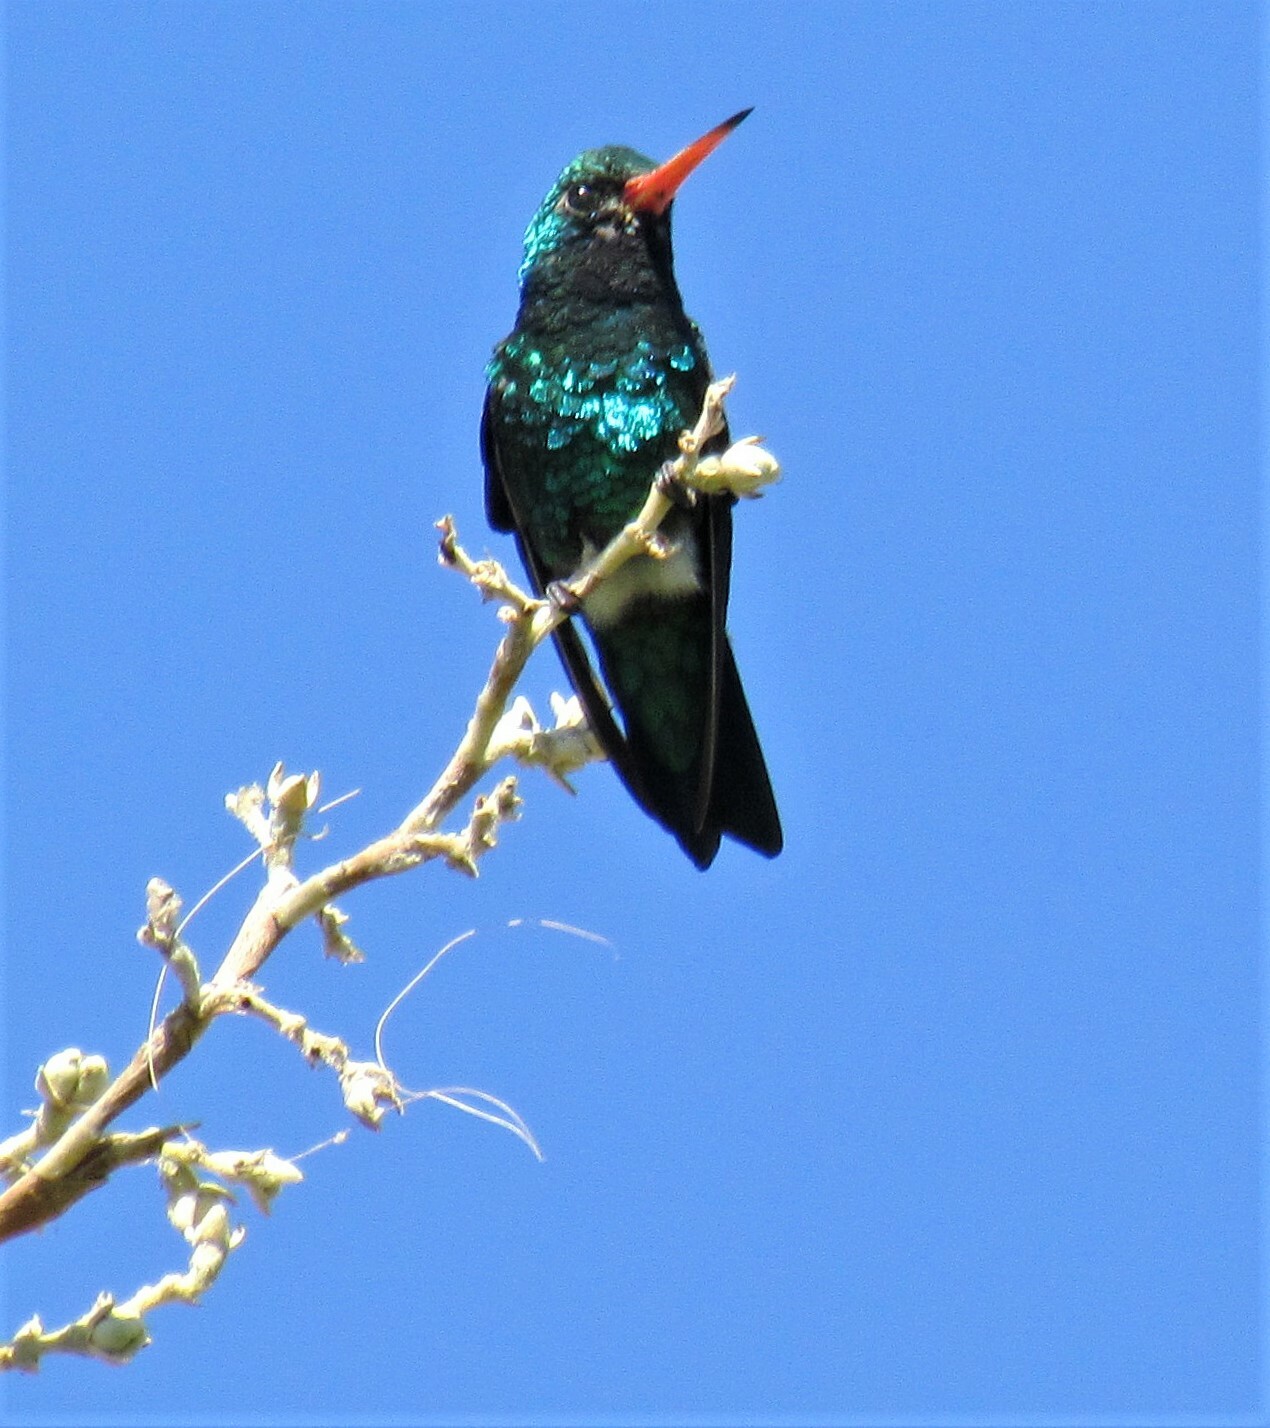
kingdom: Animalia
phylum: Chordata
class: Aves
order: Apodiformes
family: Trochilidae
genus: Chlorostilbon
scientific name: Chlorostilbon lucidus
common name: Glittering-bellied emerald
